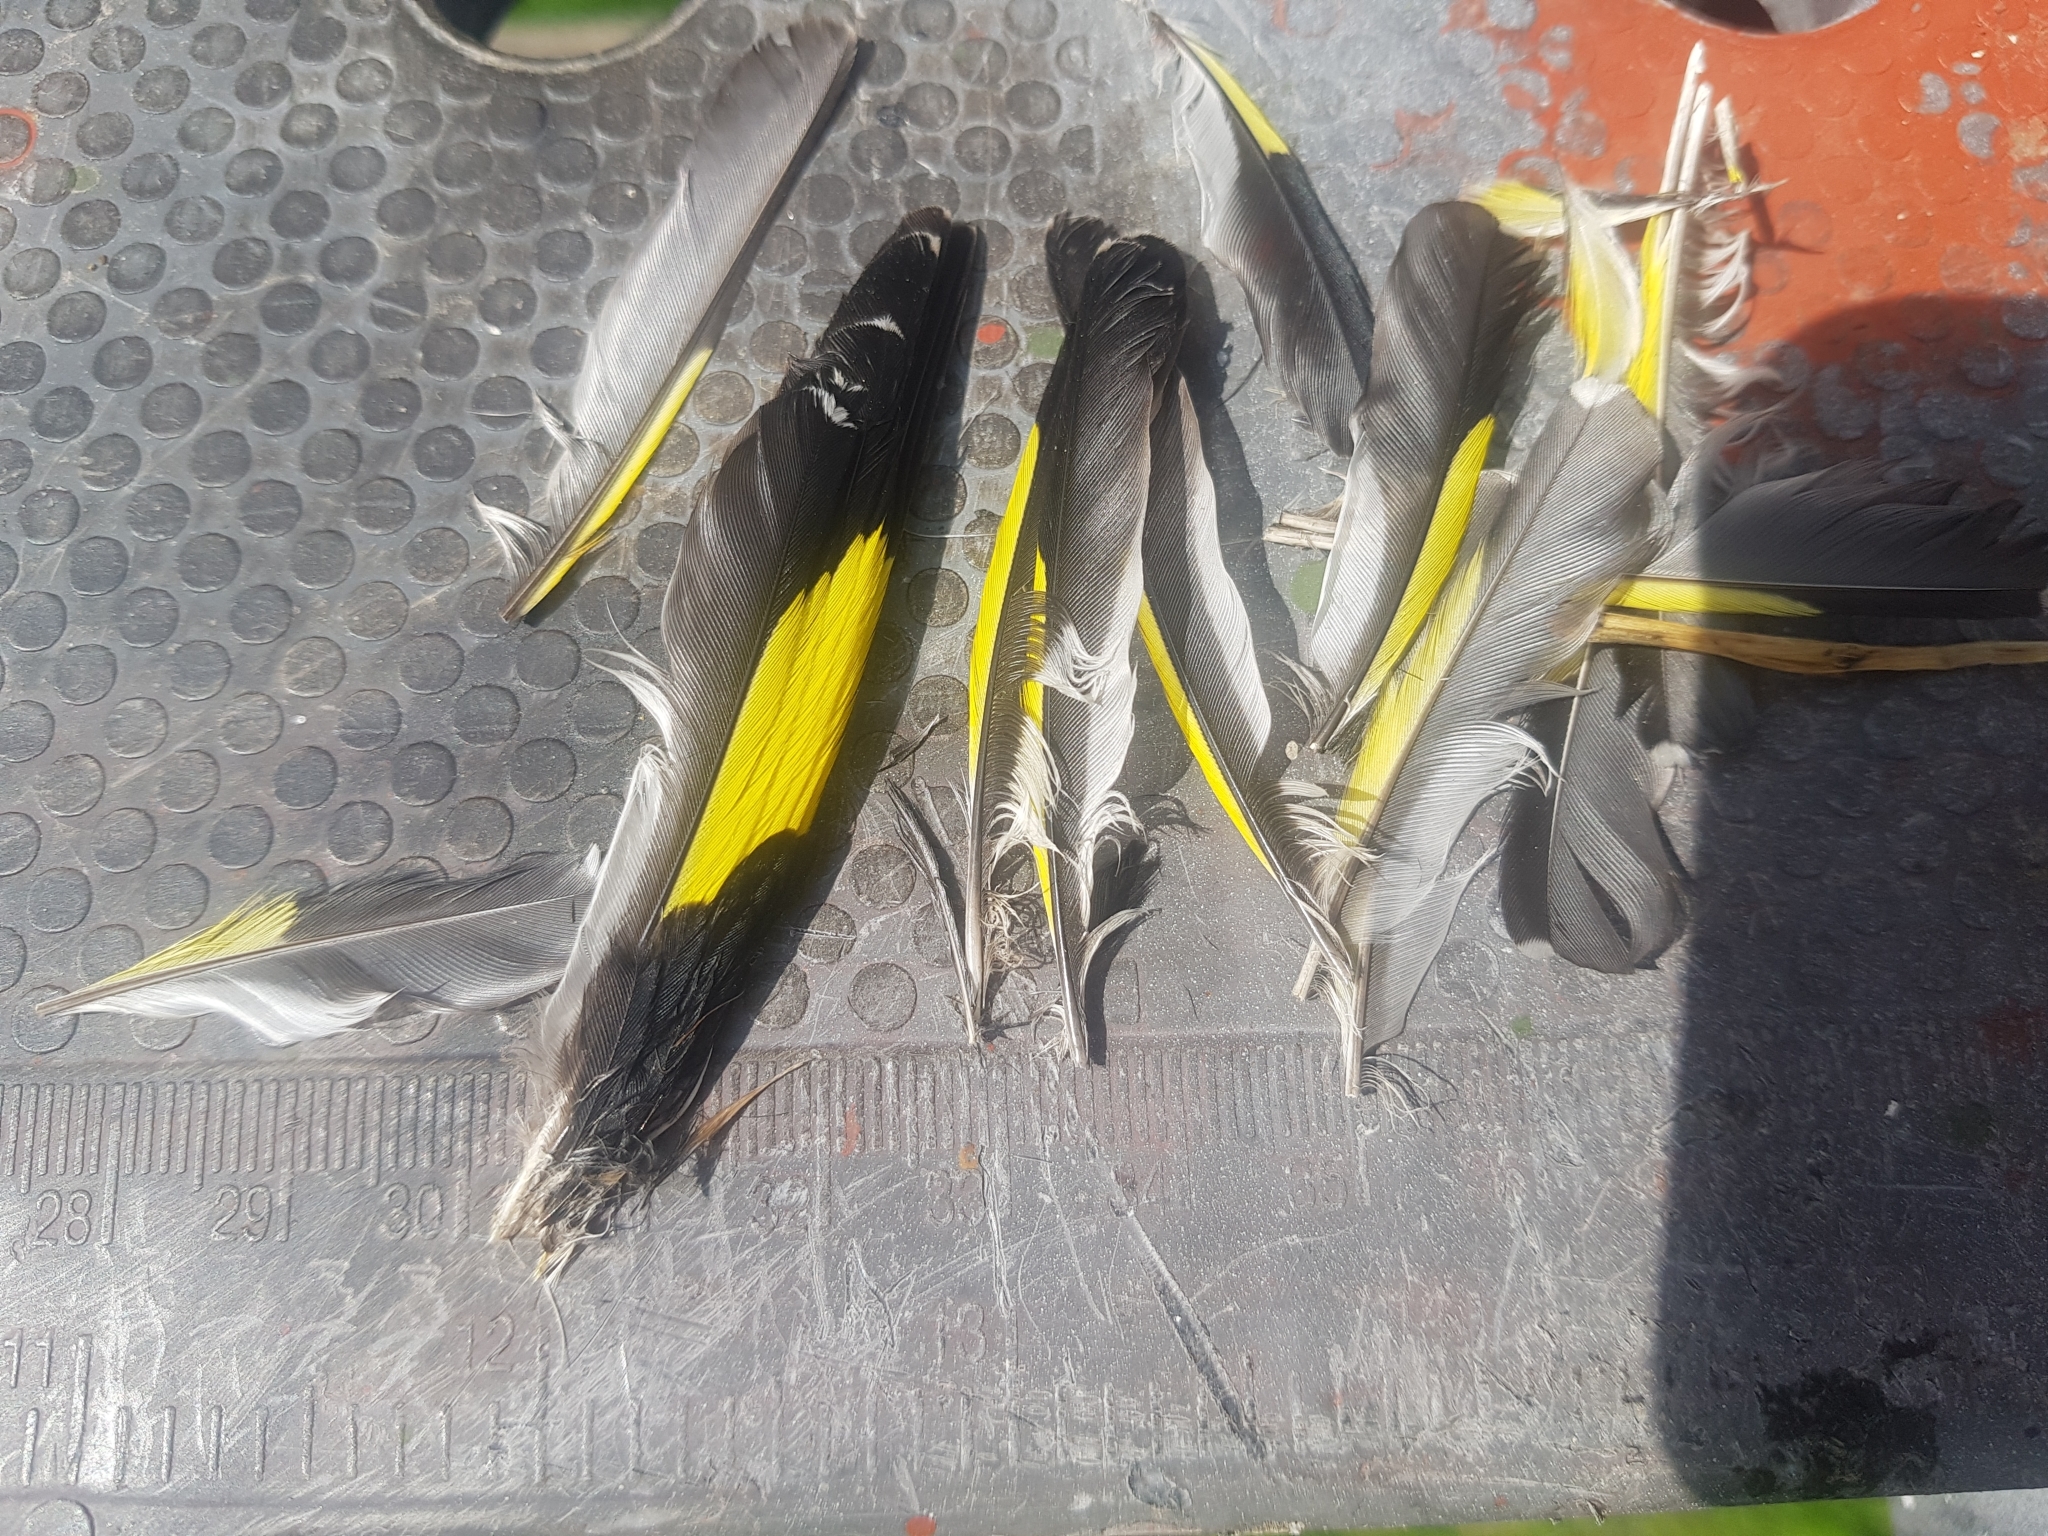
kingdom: Animalia
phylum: Chordata
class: Aves
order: Passeriformes
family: Fringillidae
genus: Carduelis
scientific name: Carduelis carduelis
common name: European goldfinch
